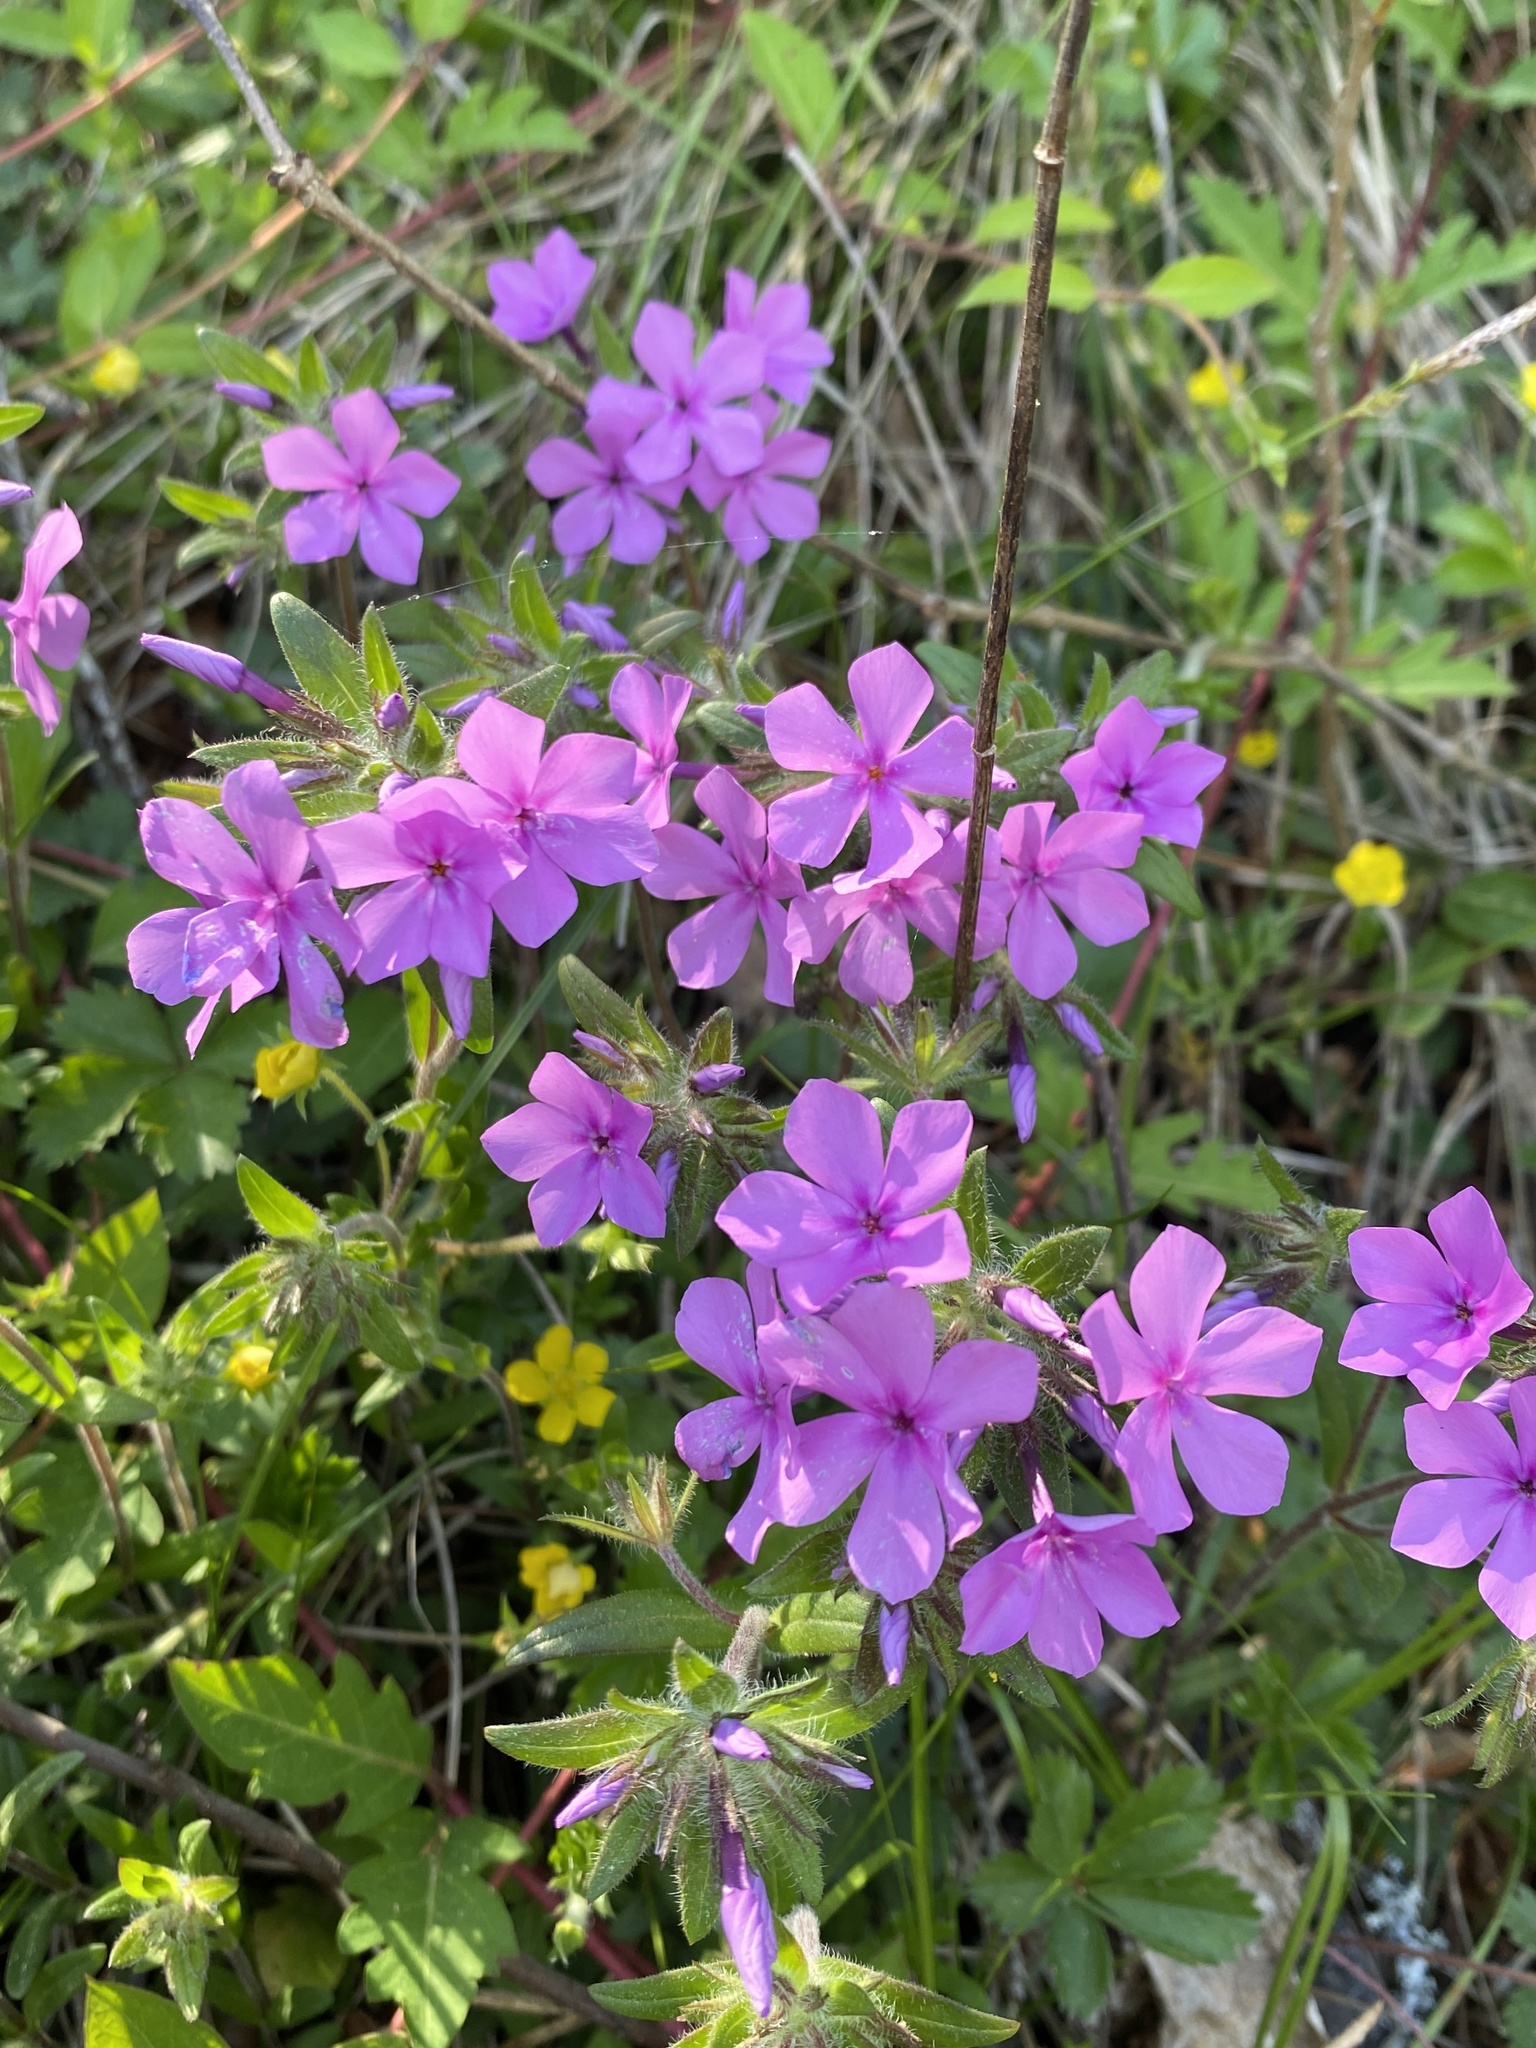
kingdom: Plantae
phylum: Tracheophyta
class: Magnoliopsida
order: Ericales
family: Polemoniaceae
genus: Phlox
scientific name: Phlox amoena
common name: Hairy phlox
